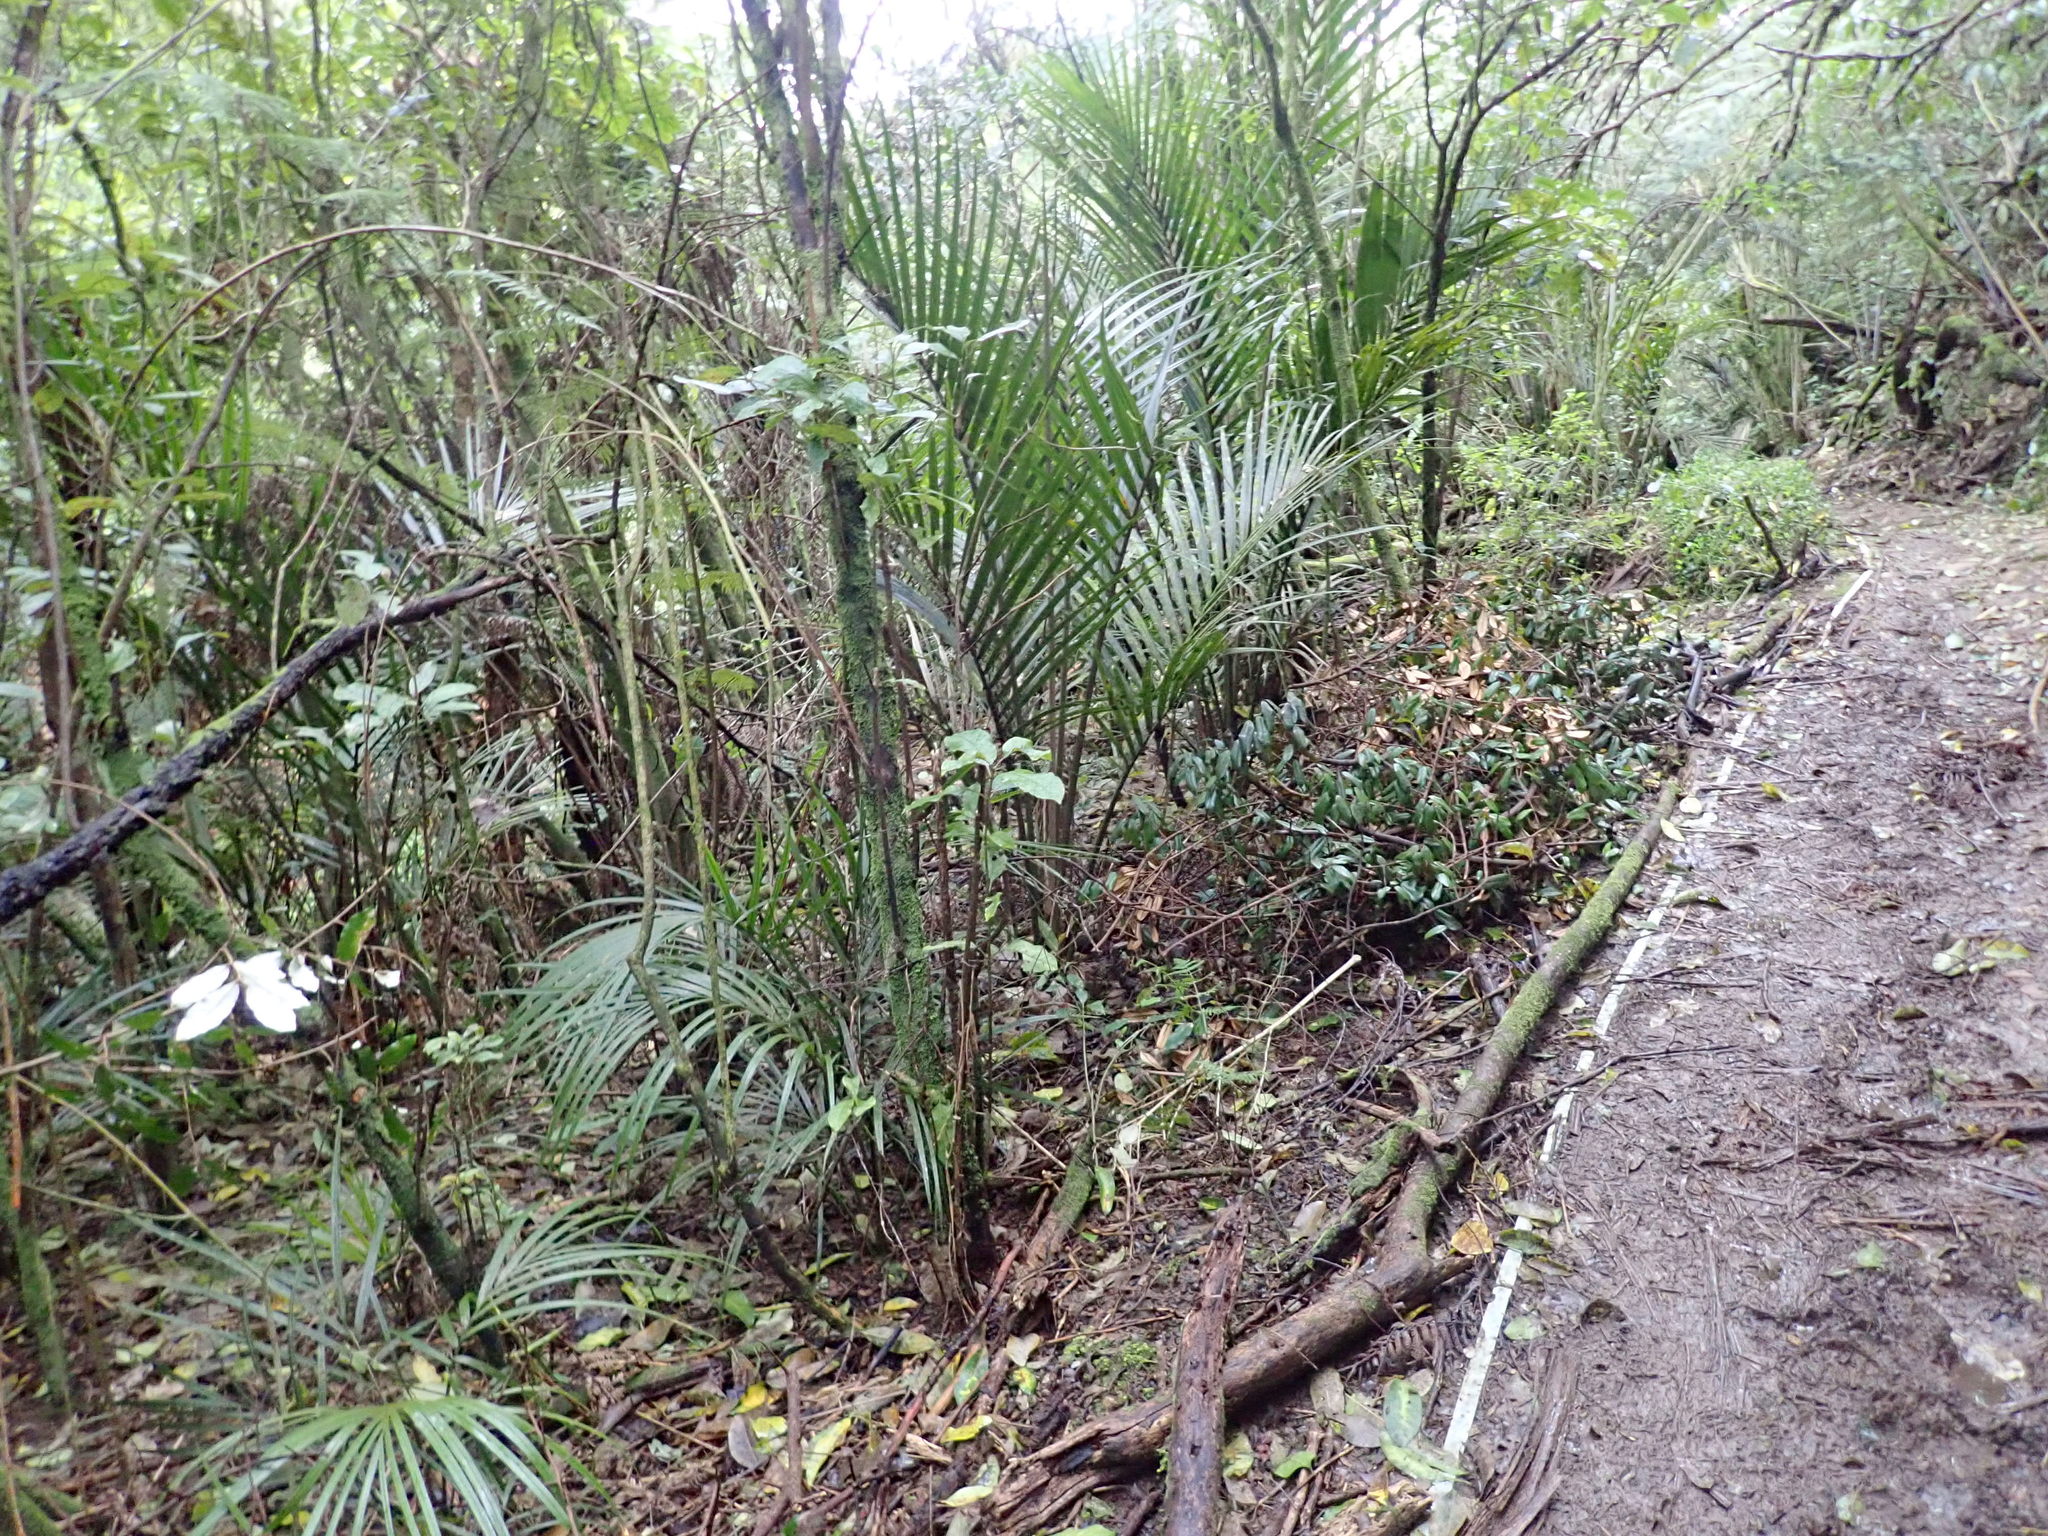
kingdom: Plantae
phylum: Tracheophyta
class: Magnoliopsida
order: Apiales
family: Araliaceae
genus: Schefflera
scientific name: Schefflera digitata
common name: Pate
